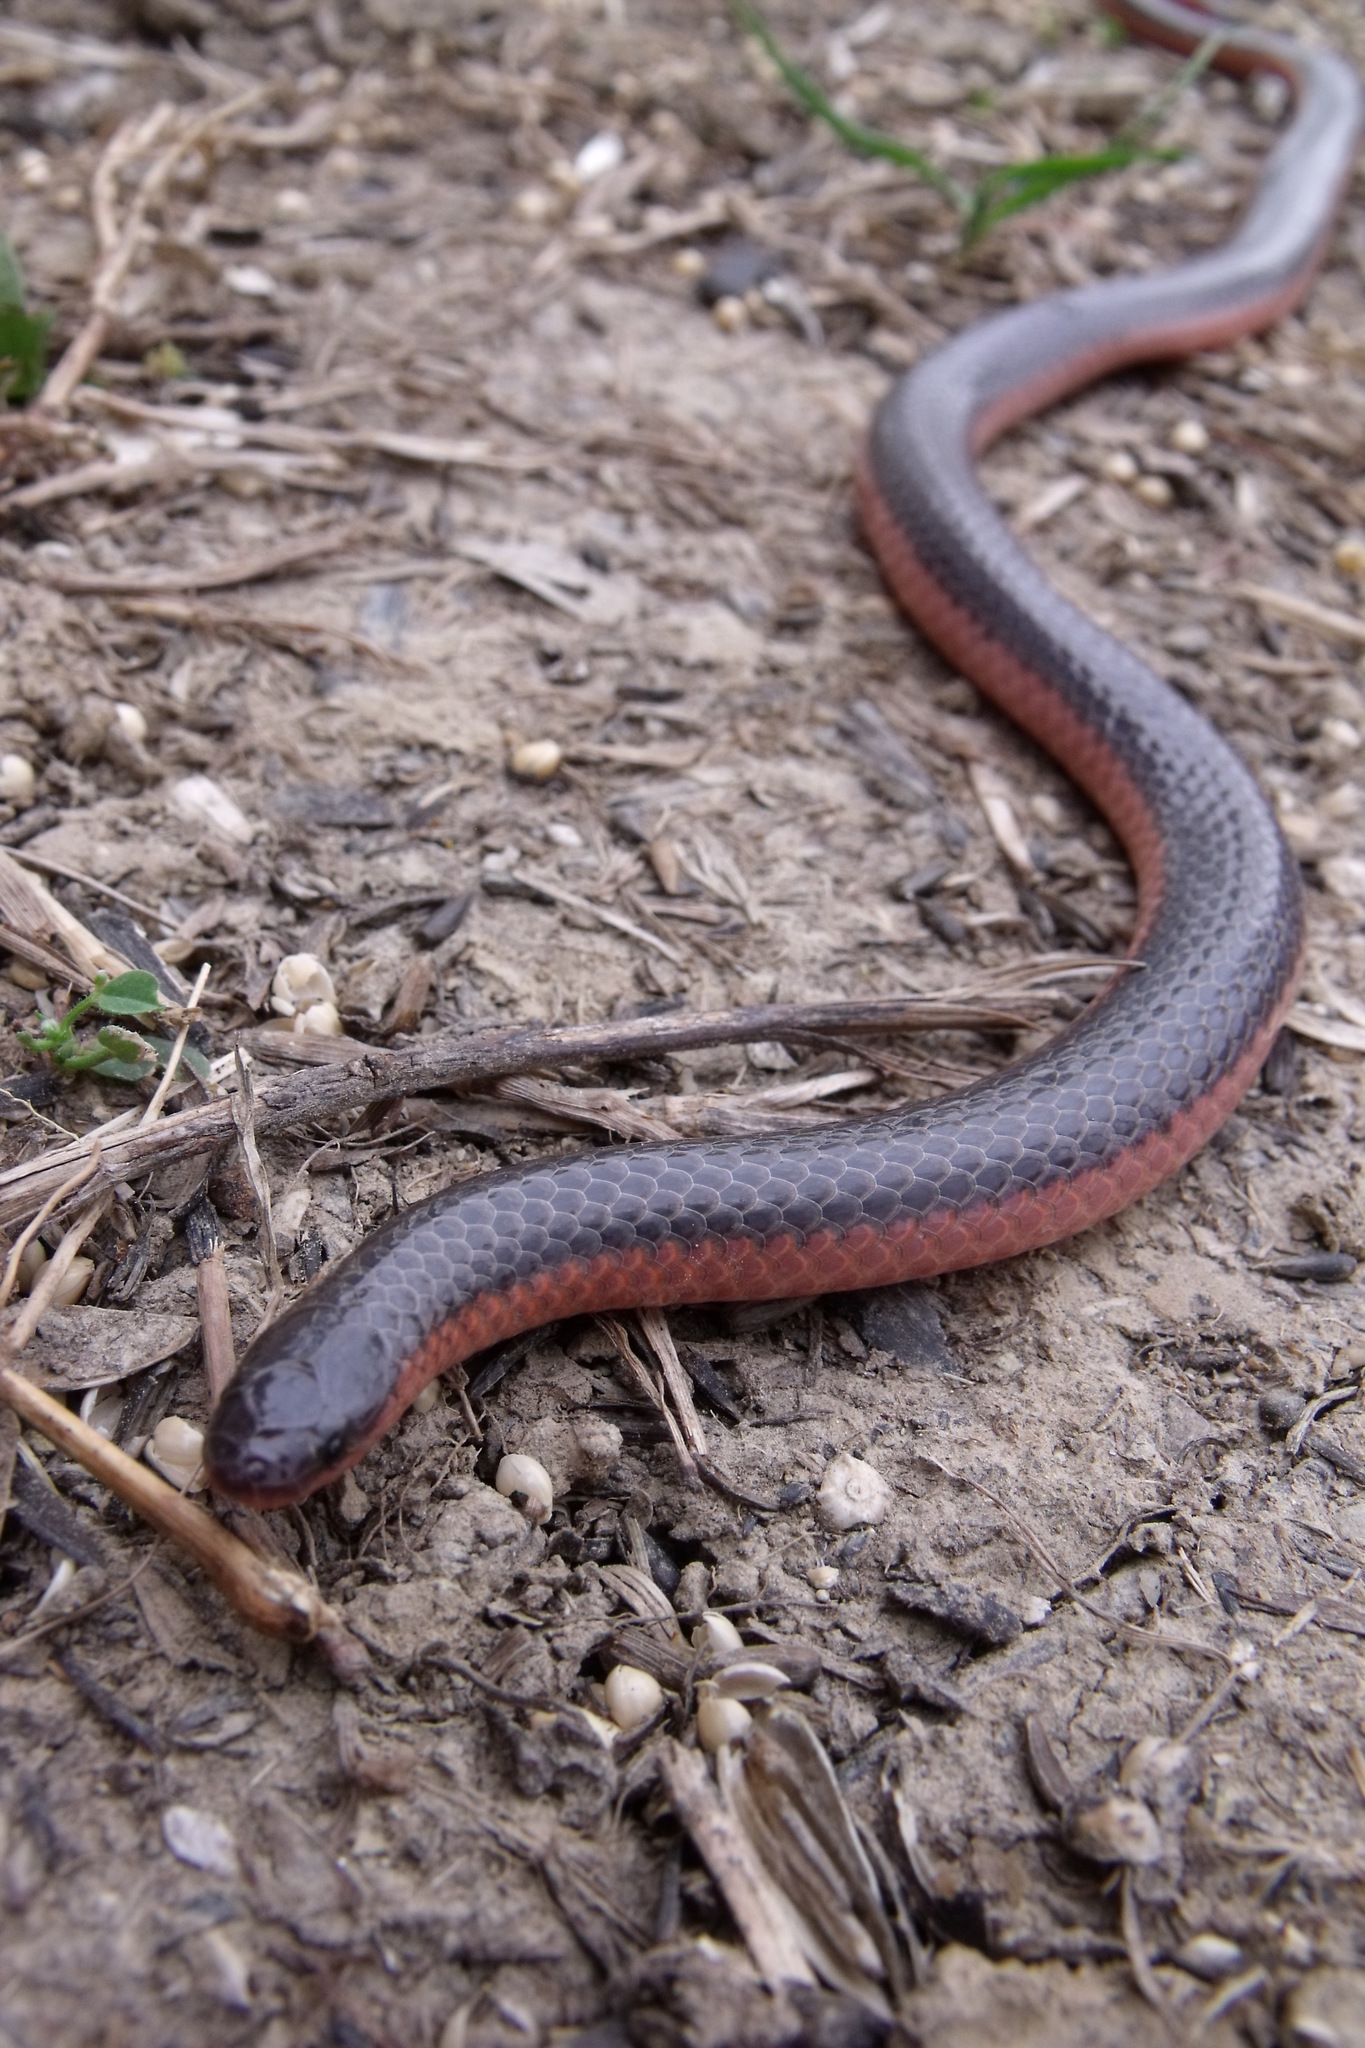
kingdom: Animalia
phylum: Chordata
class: Squamata
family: Colubridae
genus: Carphophis
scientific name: Carphophis vermis
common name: Western worm snake
